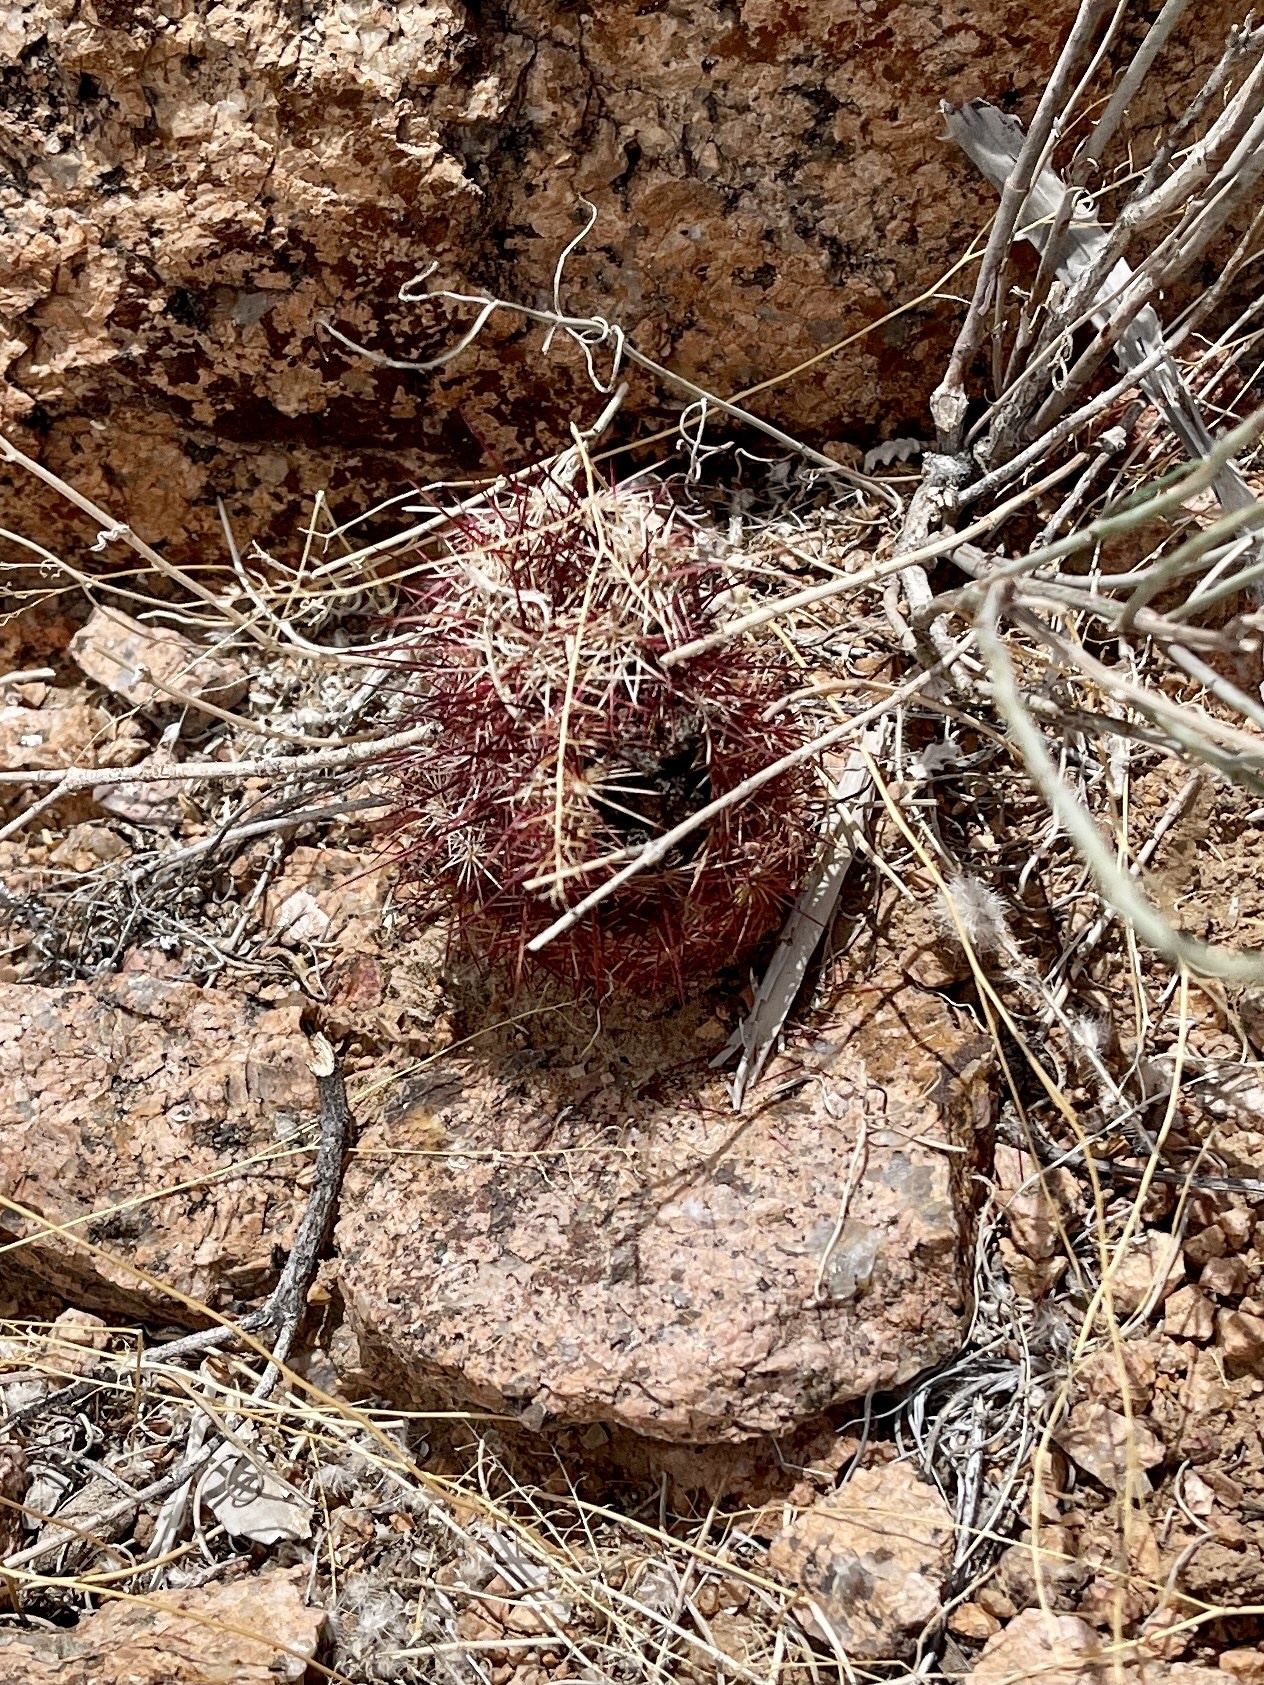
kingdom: Plantae
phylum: Tracheophyta
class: Magnoliopsida
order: Caryophyllales
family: Cactaceae
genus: Echinocereus
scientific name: Echinocereus viridiflorus
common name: Nylon hedgehog cactus
